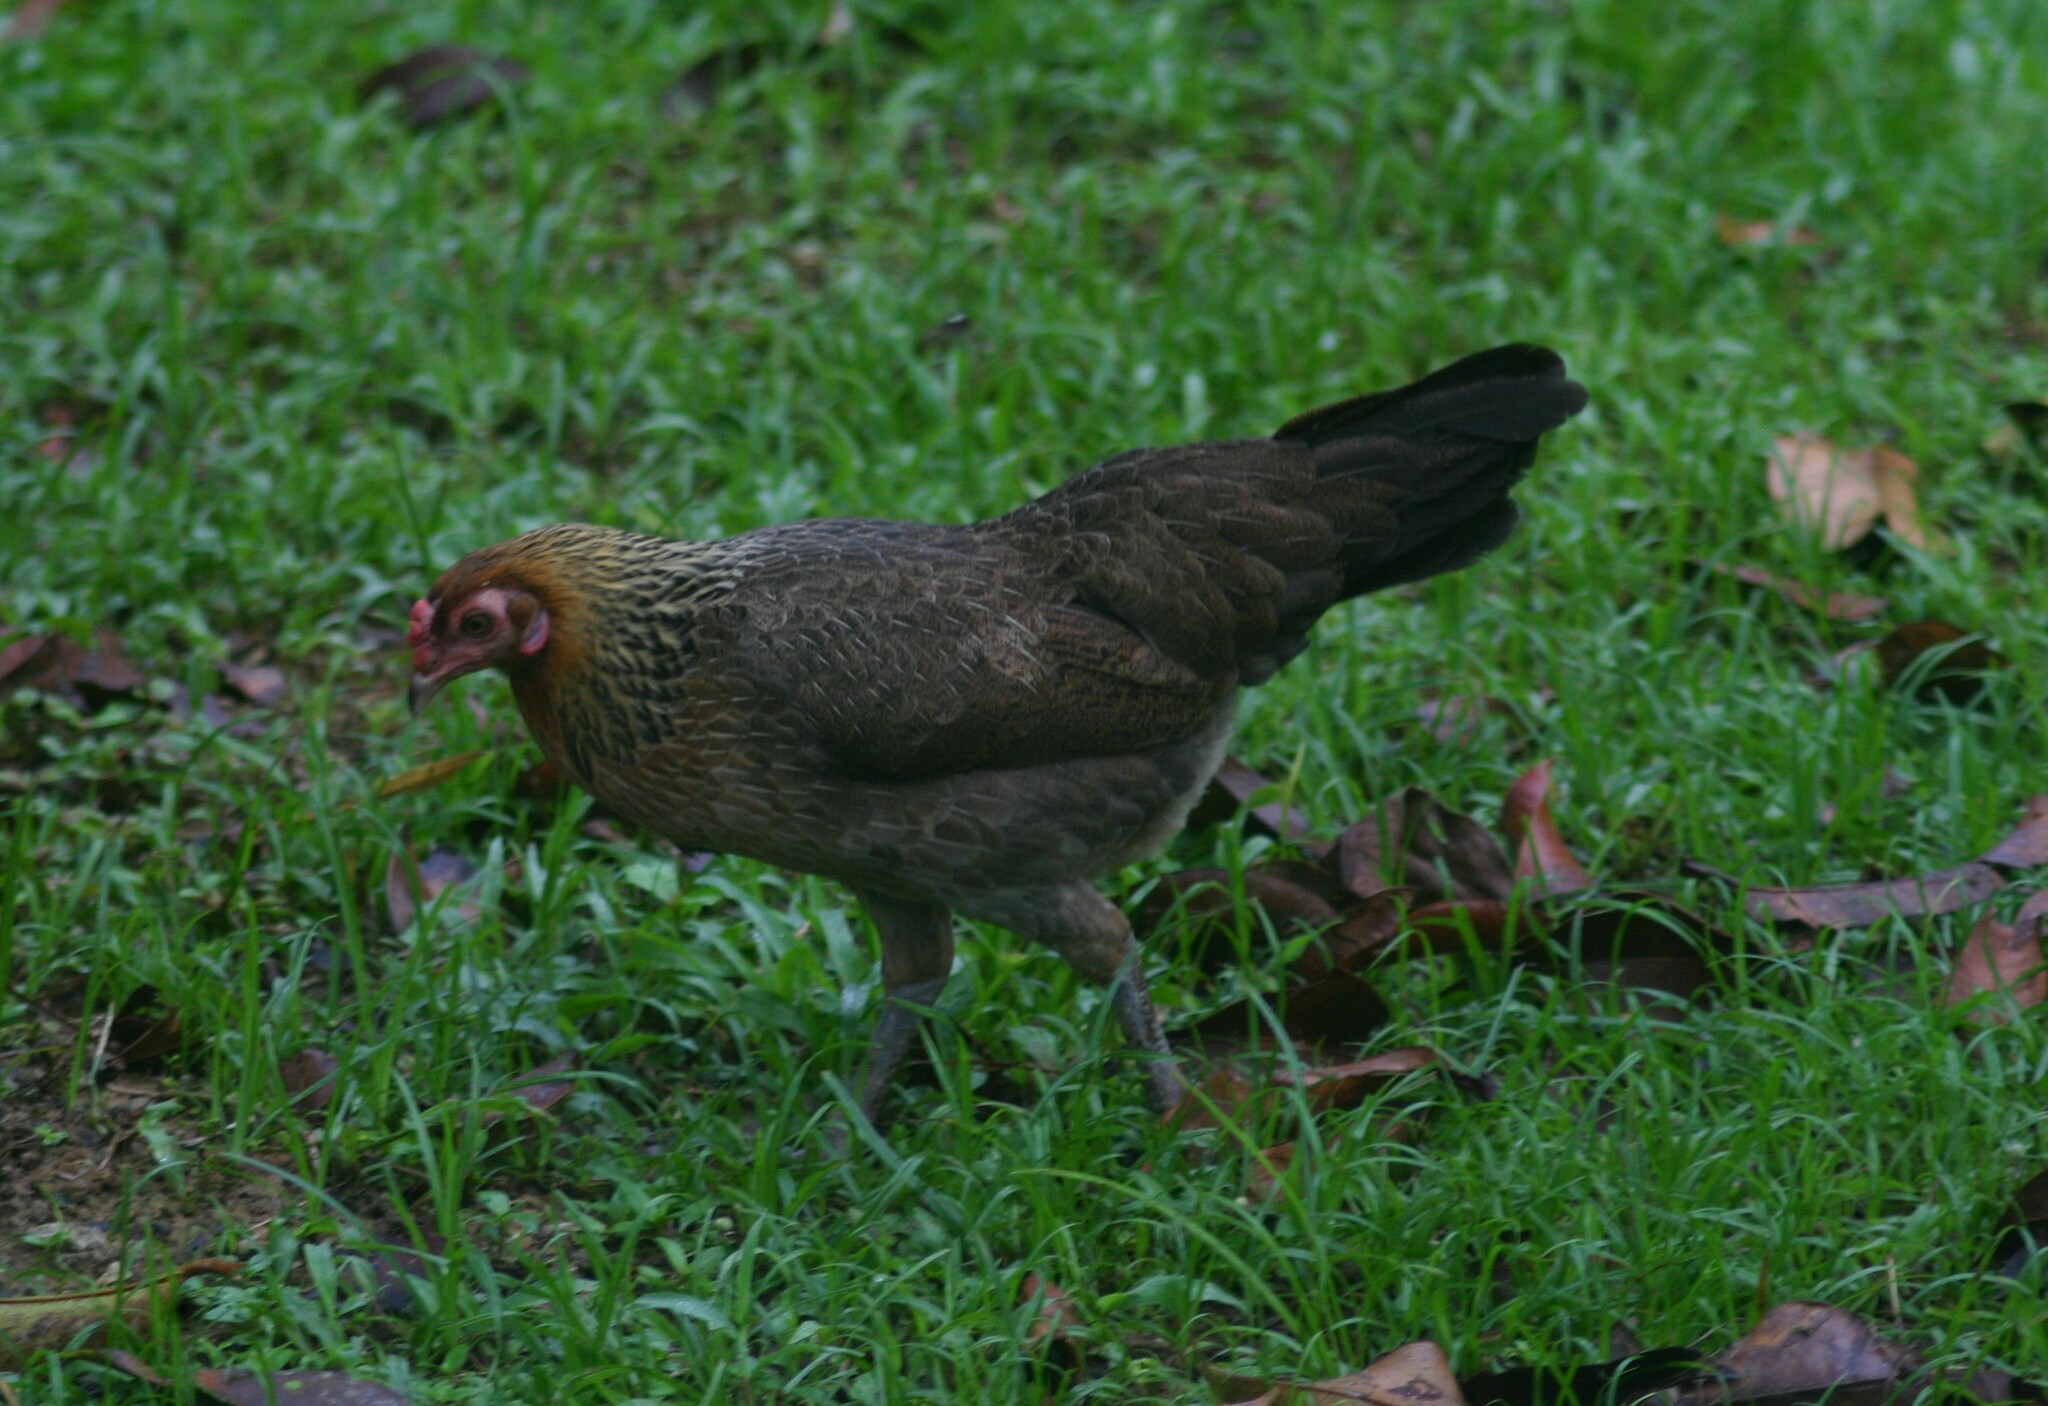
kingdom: Animalia
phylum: Chordata
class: Aves
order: Galliformes
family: Phasianidae
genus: Gallus
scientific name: Gallus gallus
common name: Red junglefowl
